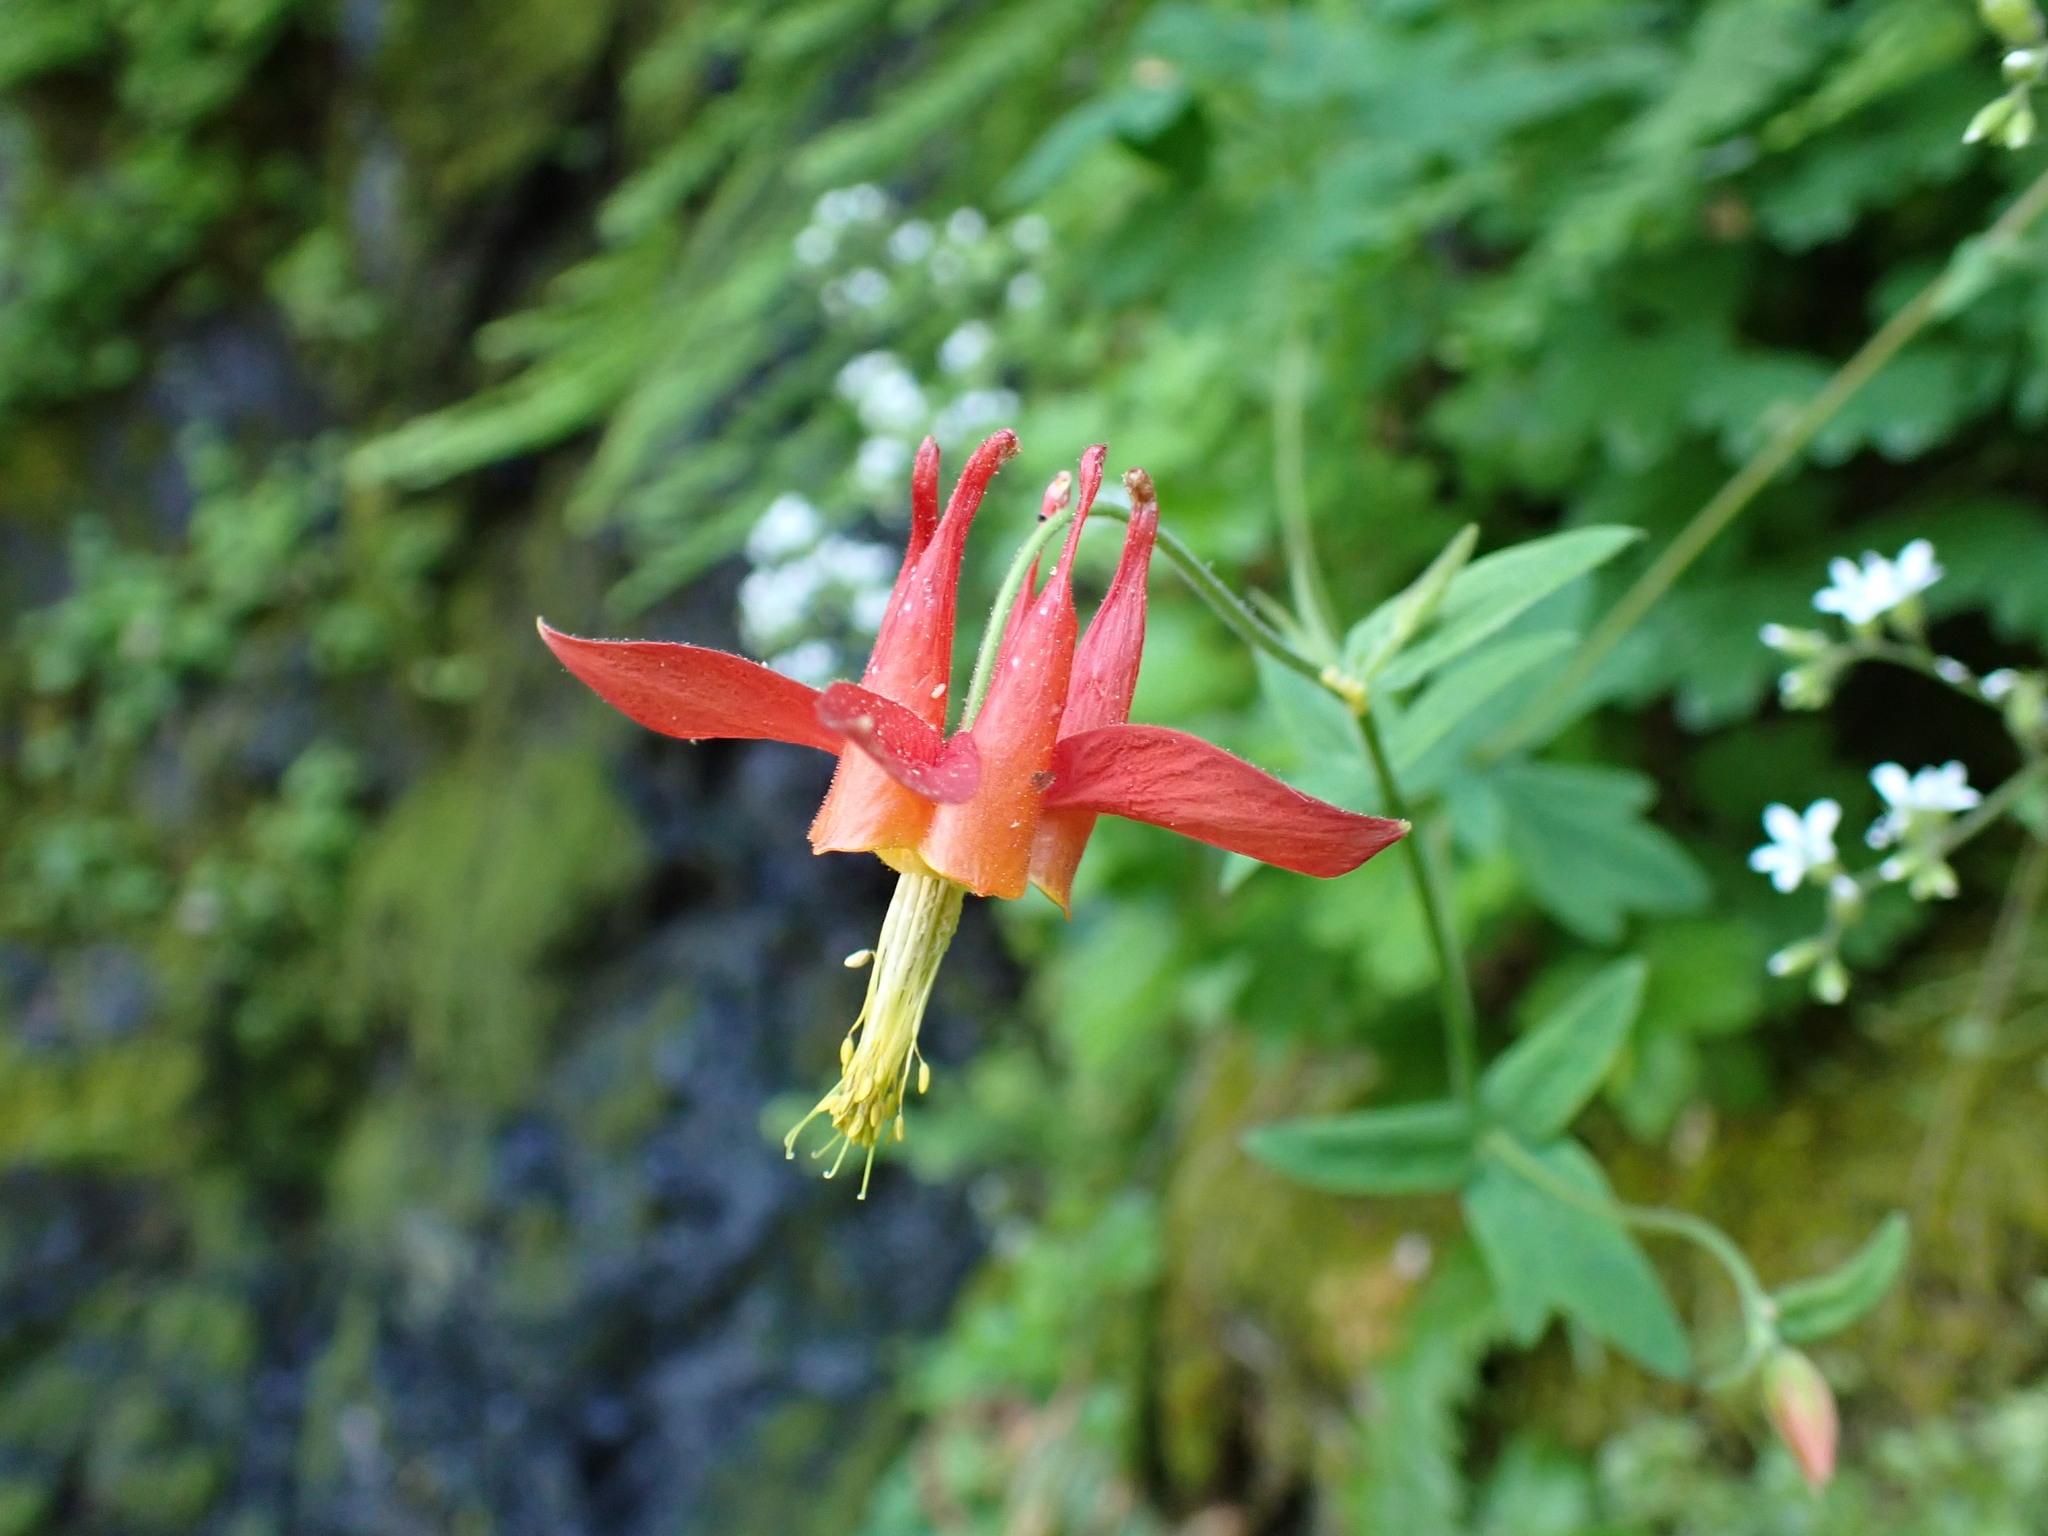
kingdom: Plantae
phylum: Tracheophyta
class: Magnoliopsida
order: Ranunculales
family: Ranunculaceae
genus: Aquilegia
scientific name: Aquilegia formosa
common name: Sitka columbine
